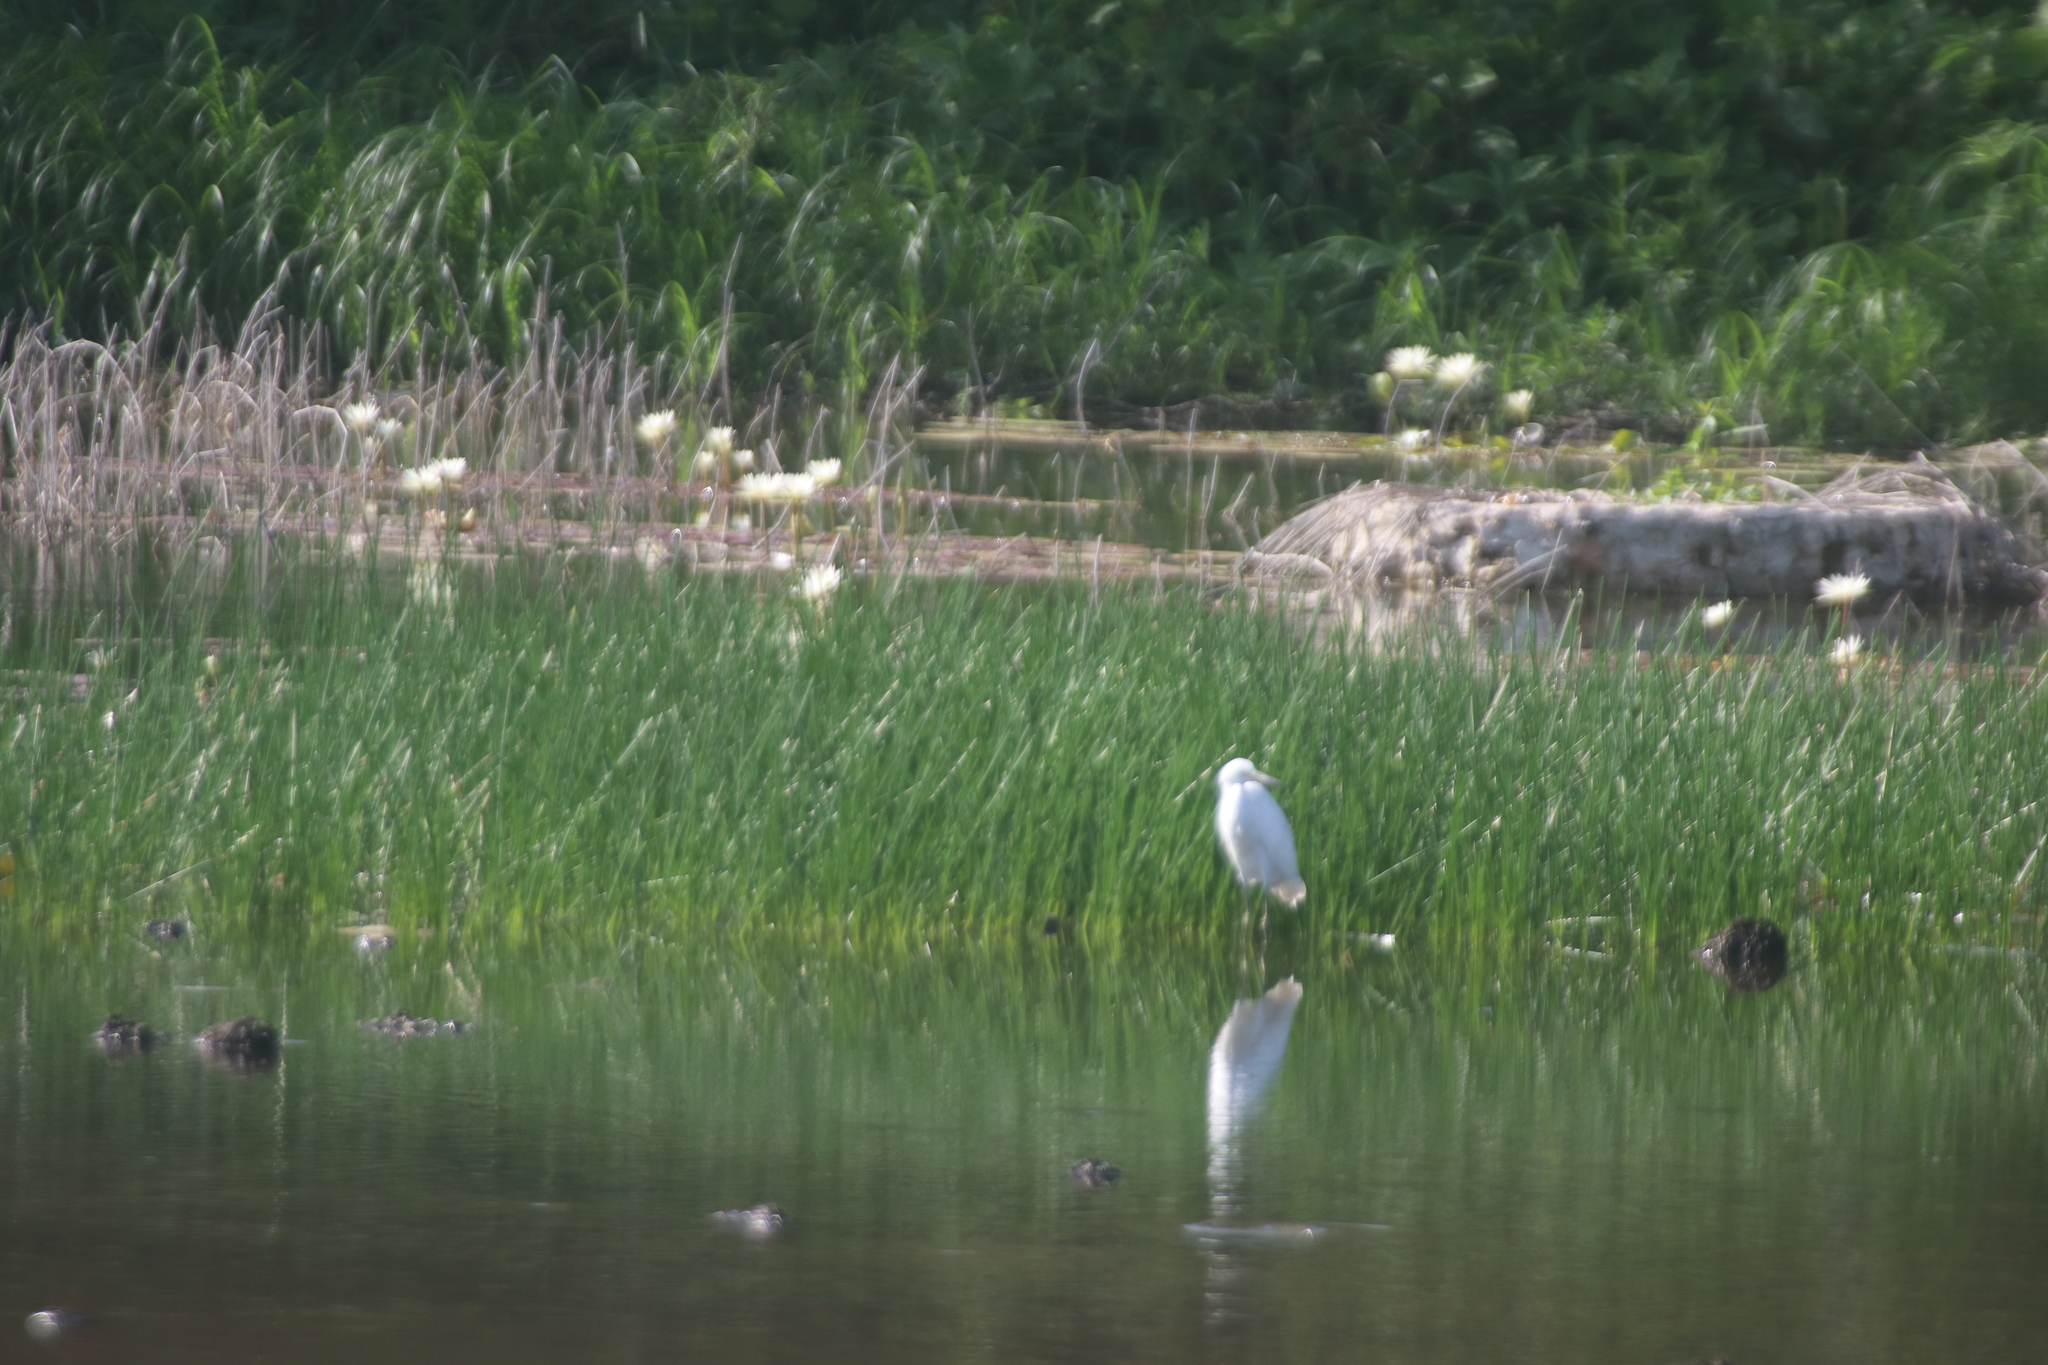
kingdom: Animalia
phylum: Chordata
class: Aves
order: Pelecaniformes
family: Ardeidae
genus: Ardea
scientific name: Ardea alba
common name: Great egret
